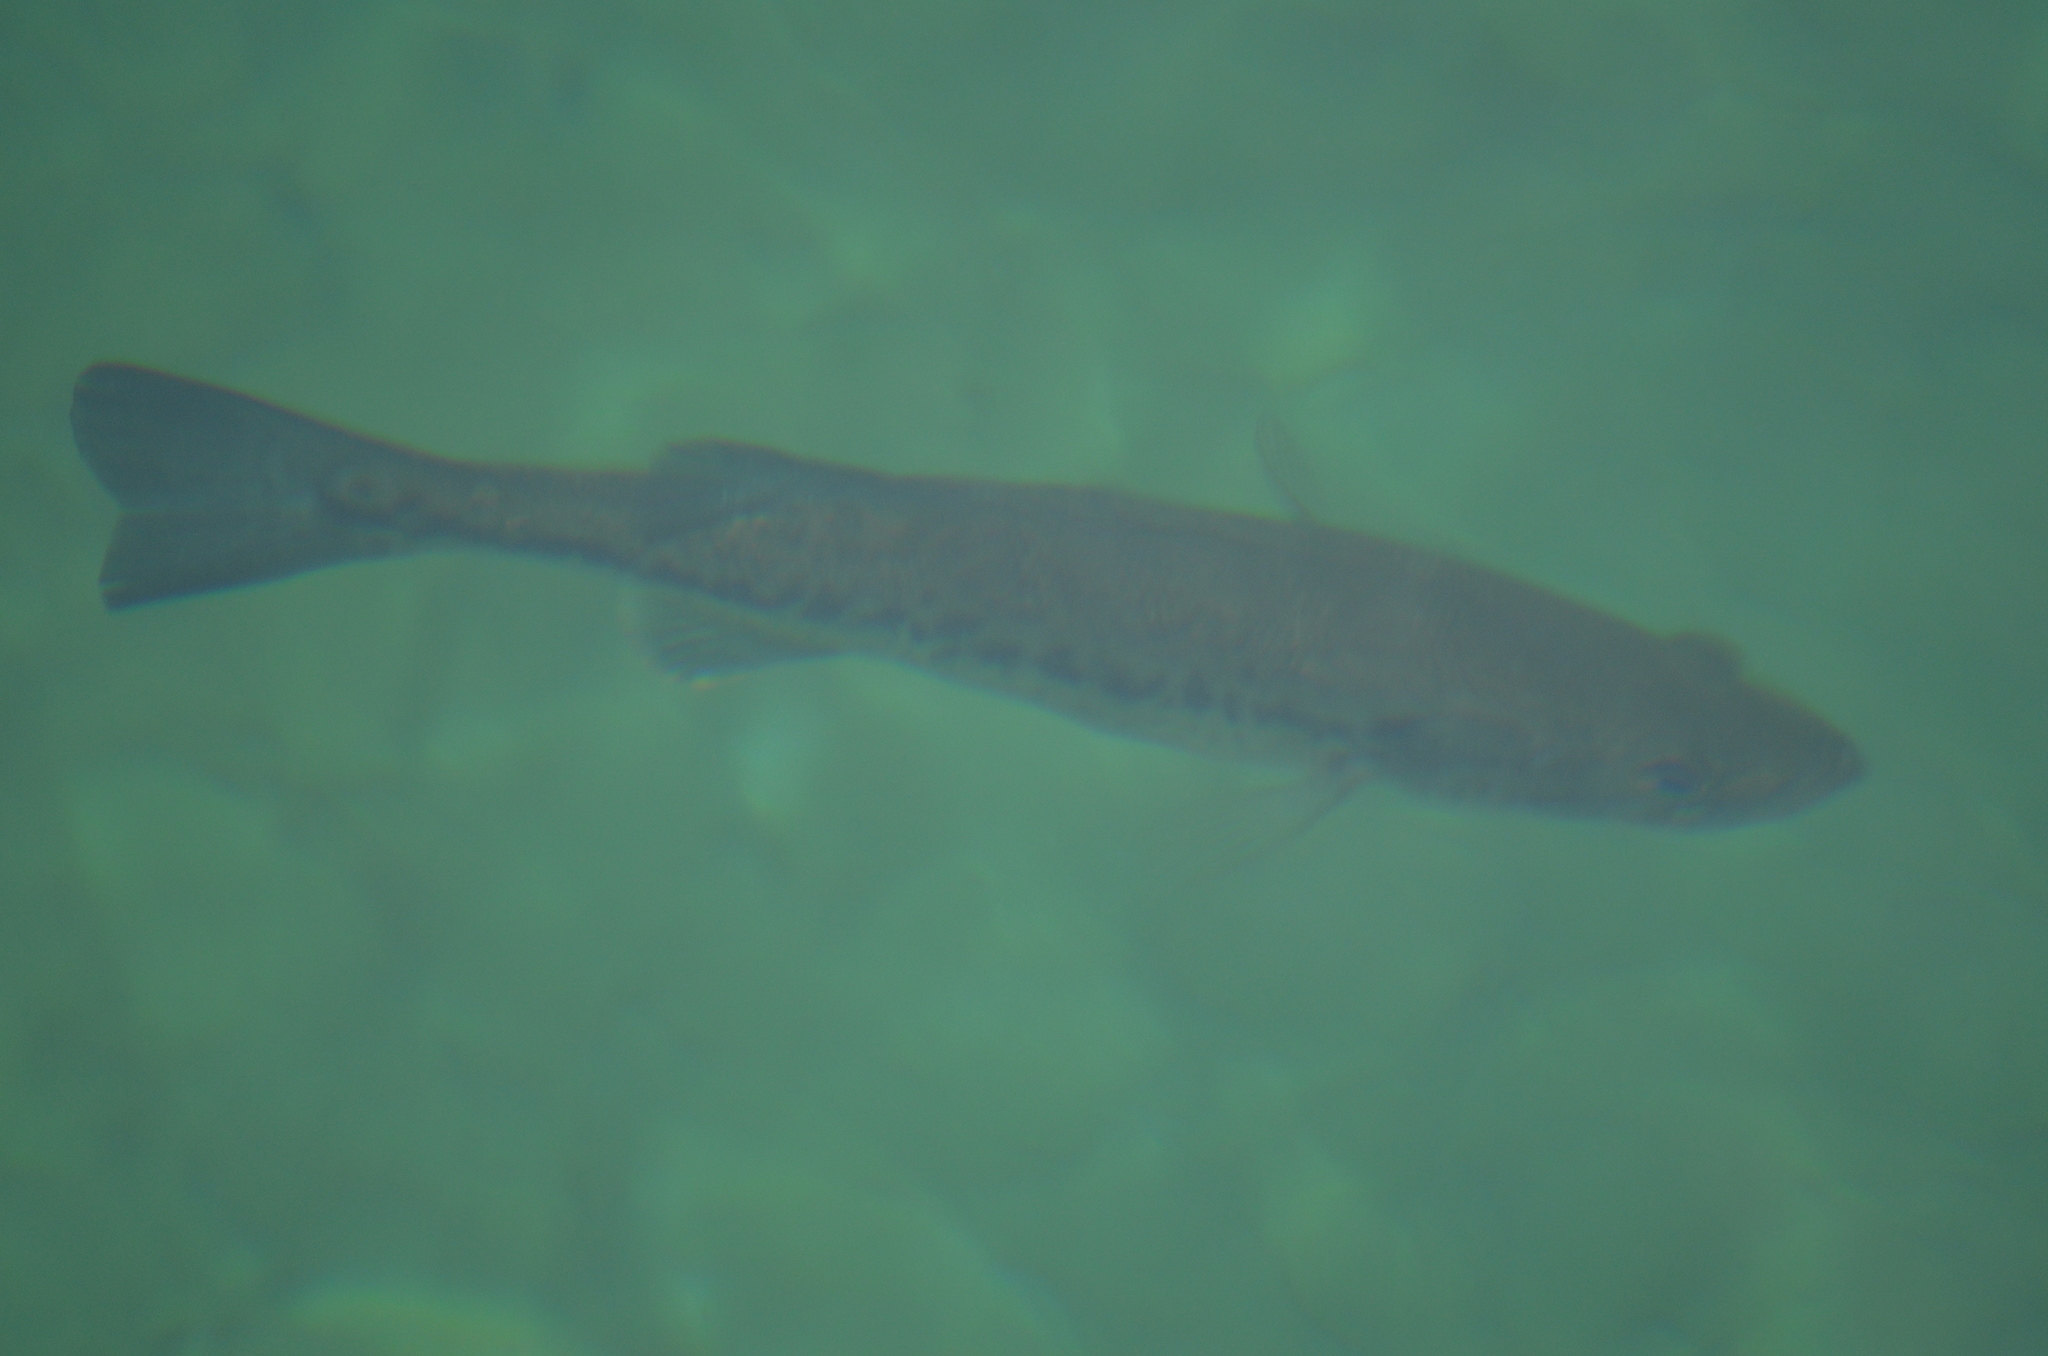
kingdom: Animalia
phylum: Chordata
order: Perciformes
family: Centrarchidae
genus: Micropterus
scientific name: Micropterus
